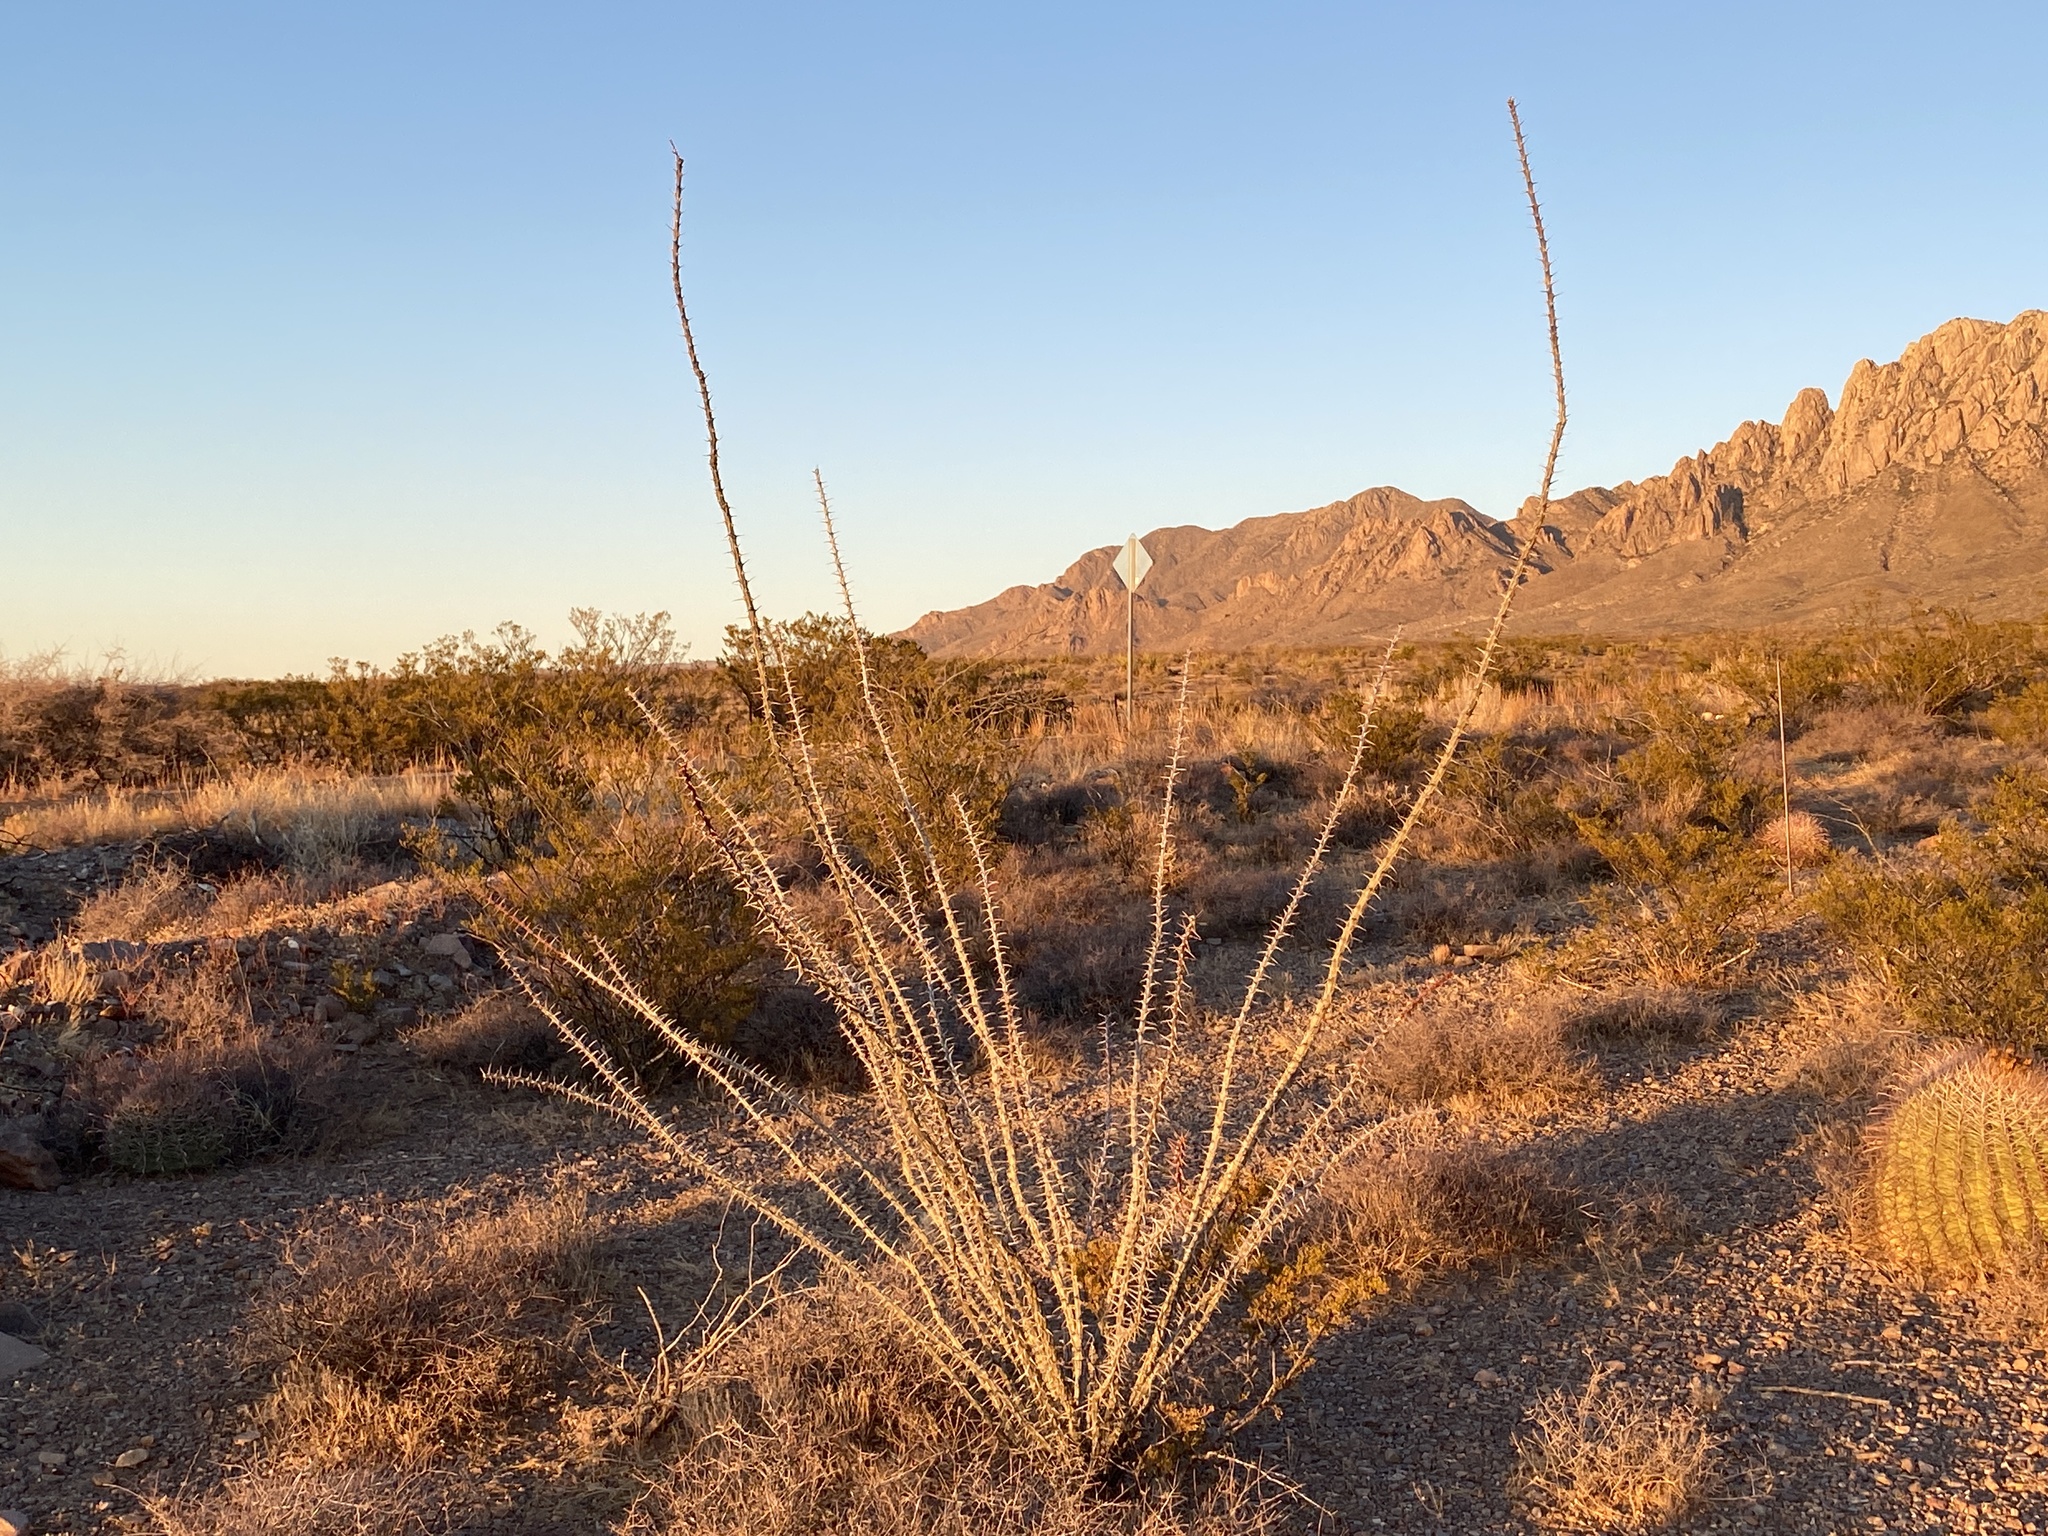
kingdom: Plantae
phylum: Tracheophyta
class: Magnoliopsida
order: Ericales
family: Fouquieriaceae
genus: Fouquieria
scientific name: Fouquieria splendens
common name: Vine-cactus
